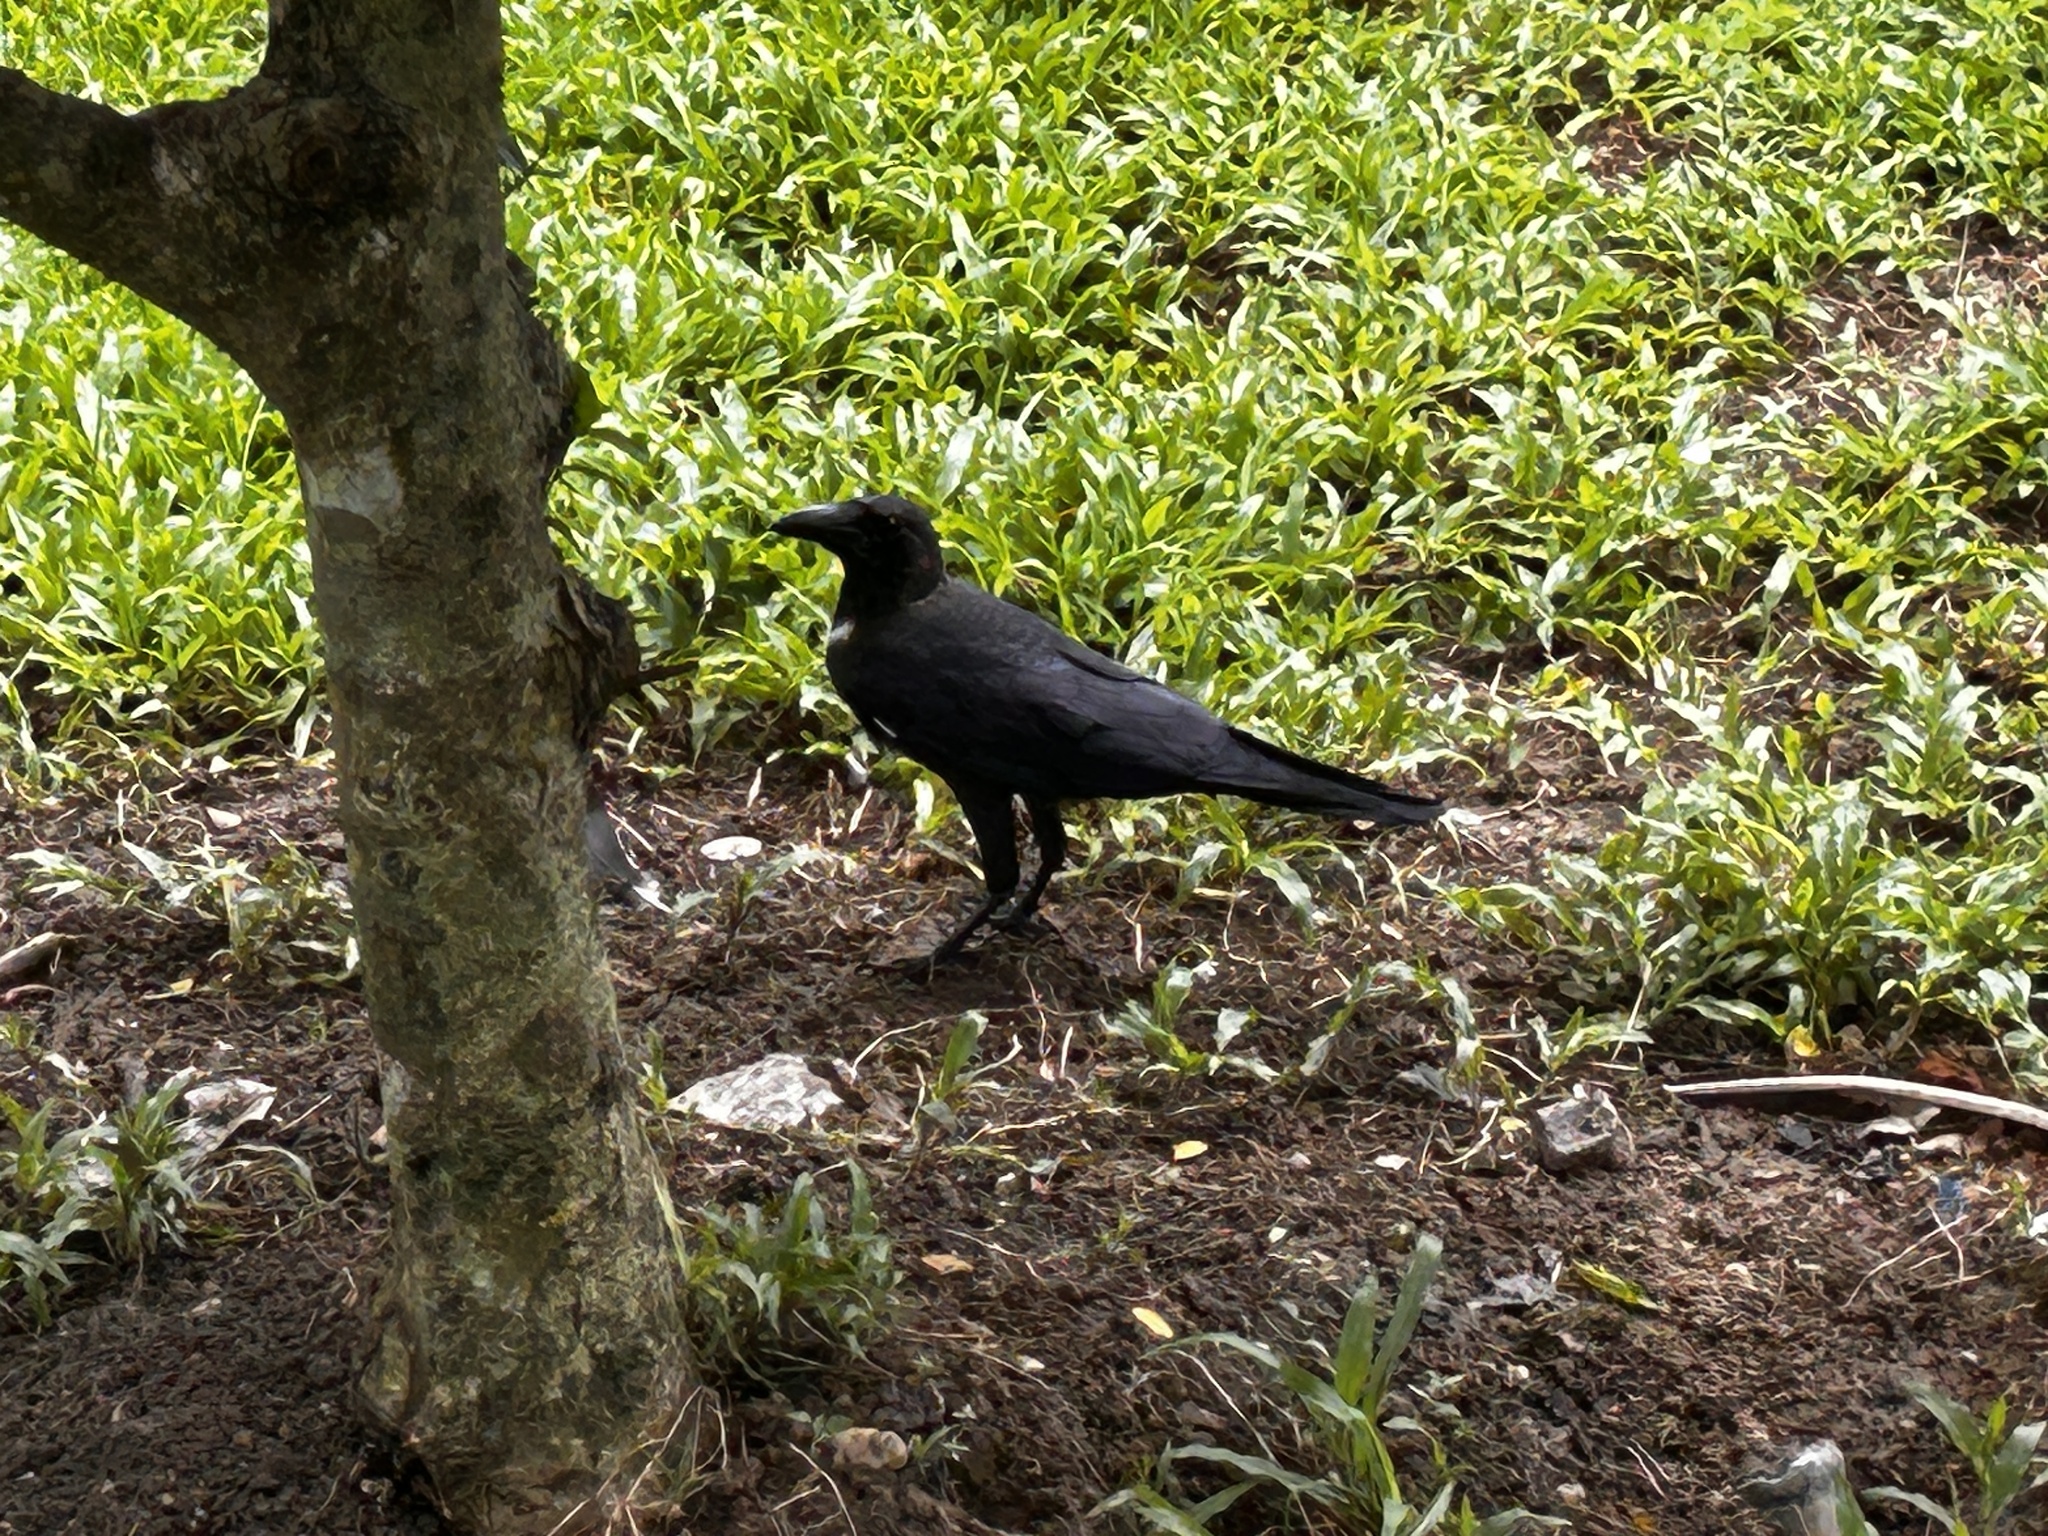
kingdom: Animalia
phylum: Chordata
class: Aves
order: Passeriformes
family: Corvidae
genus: Corvus
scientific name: Corvus splendens
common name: House crow
